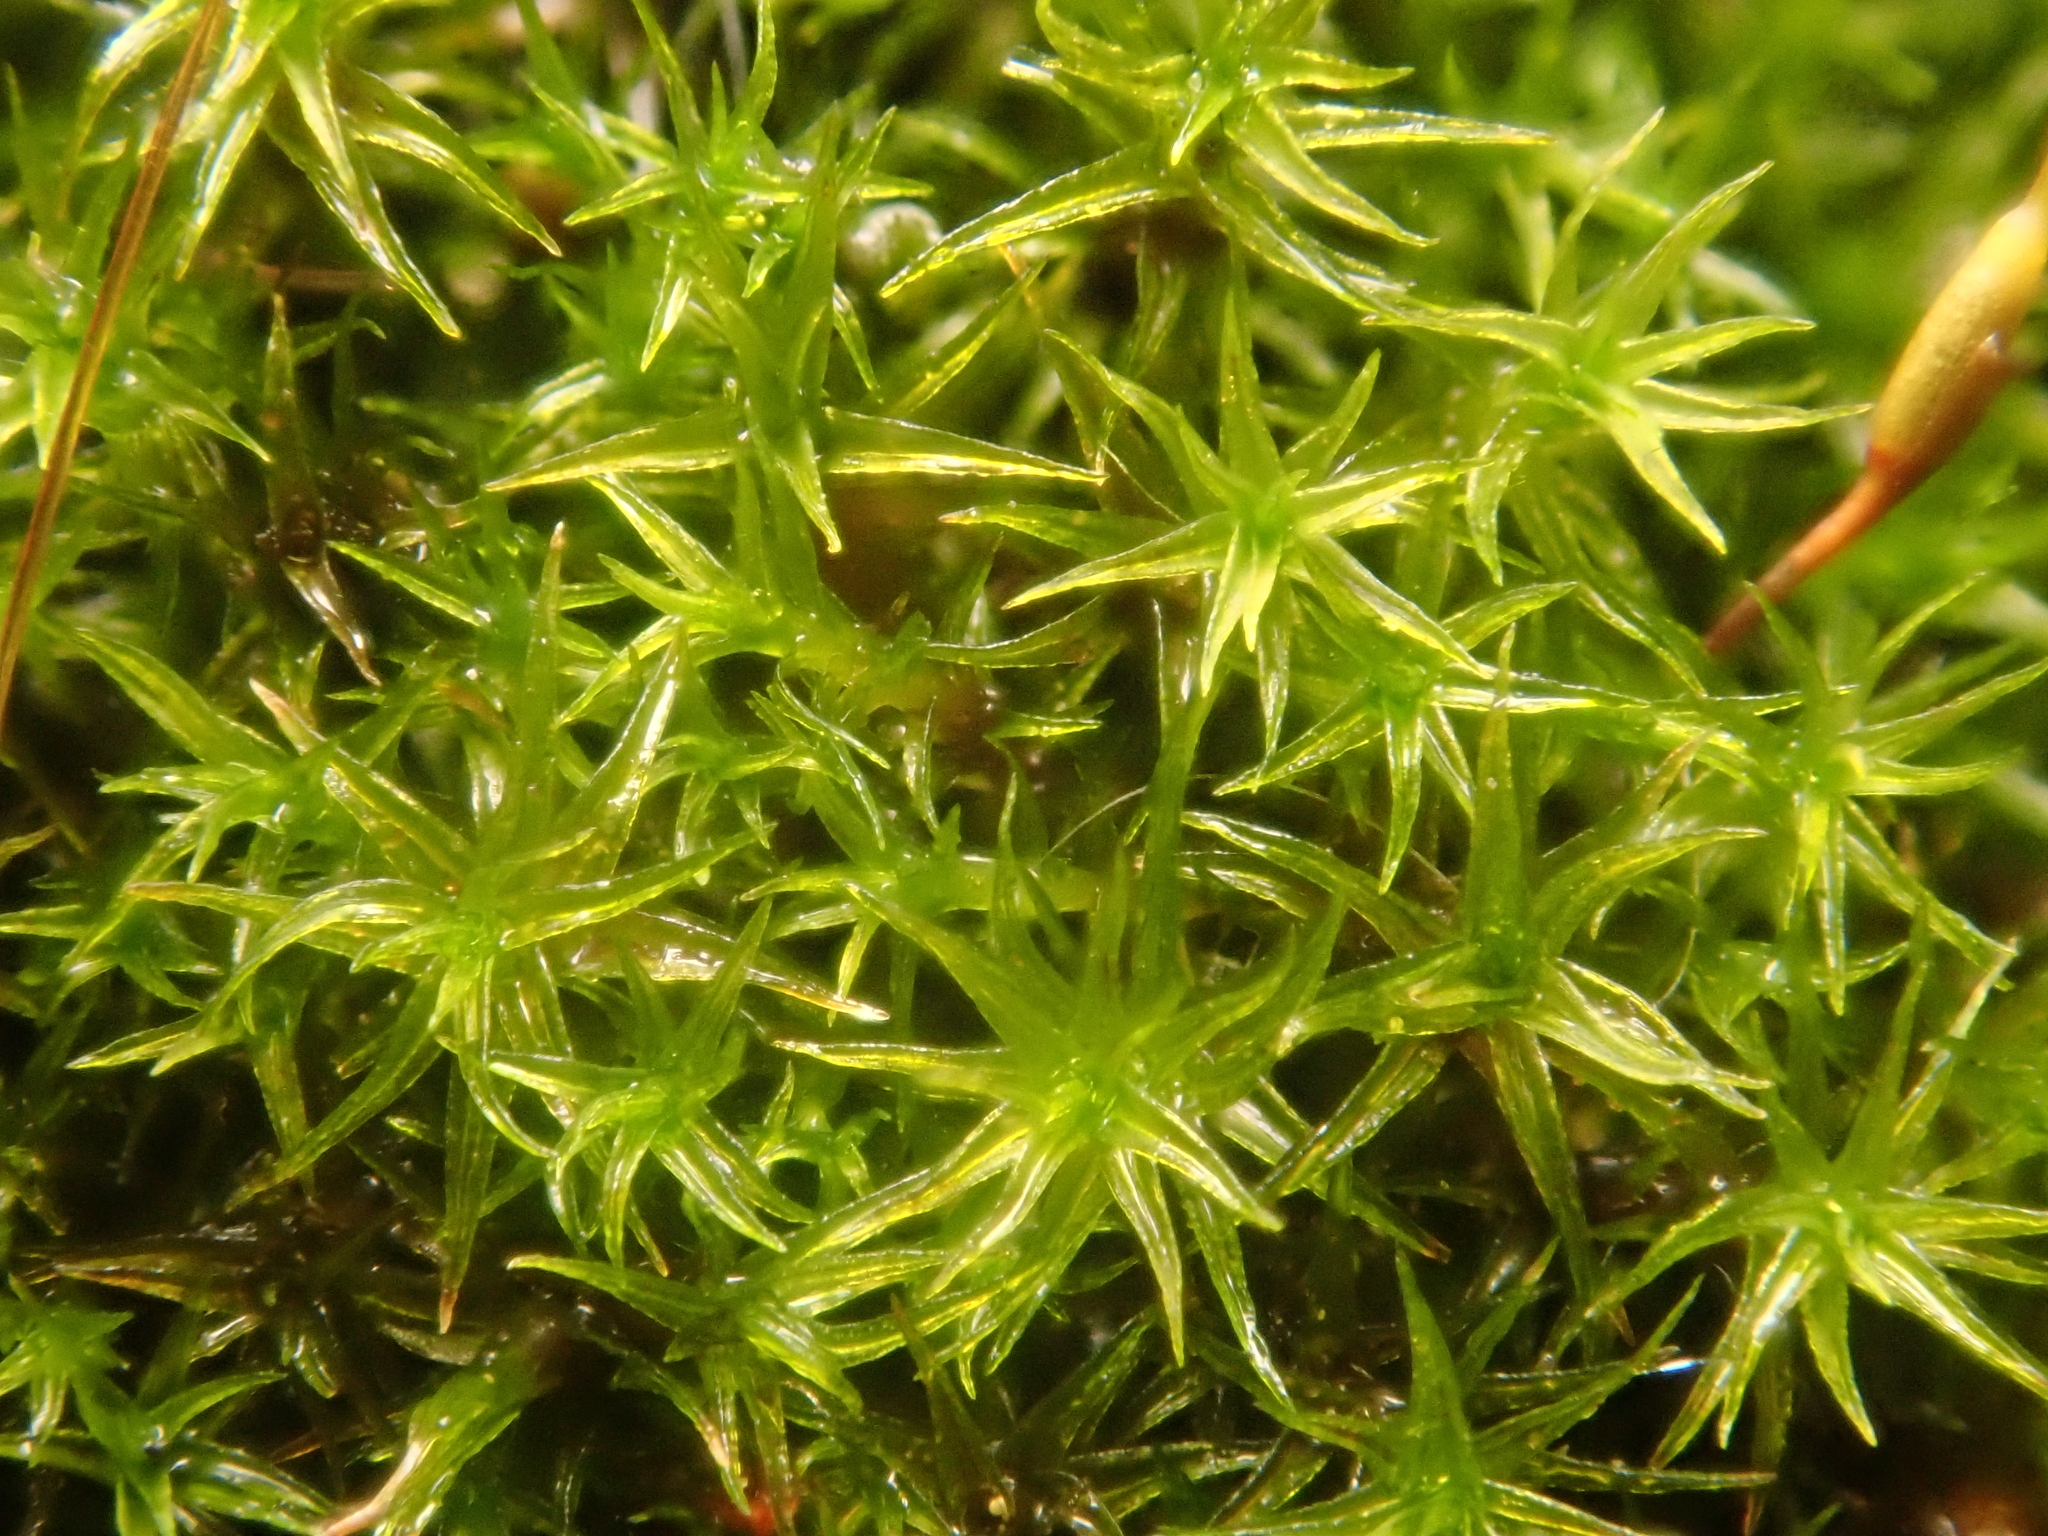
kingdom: Plantae
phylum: Bryophyta
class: Bryopsida
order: Dicranales
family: Ditrichaceae
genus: Ceratodon
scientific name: Ceratodon purpureus
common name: Redshank
